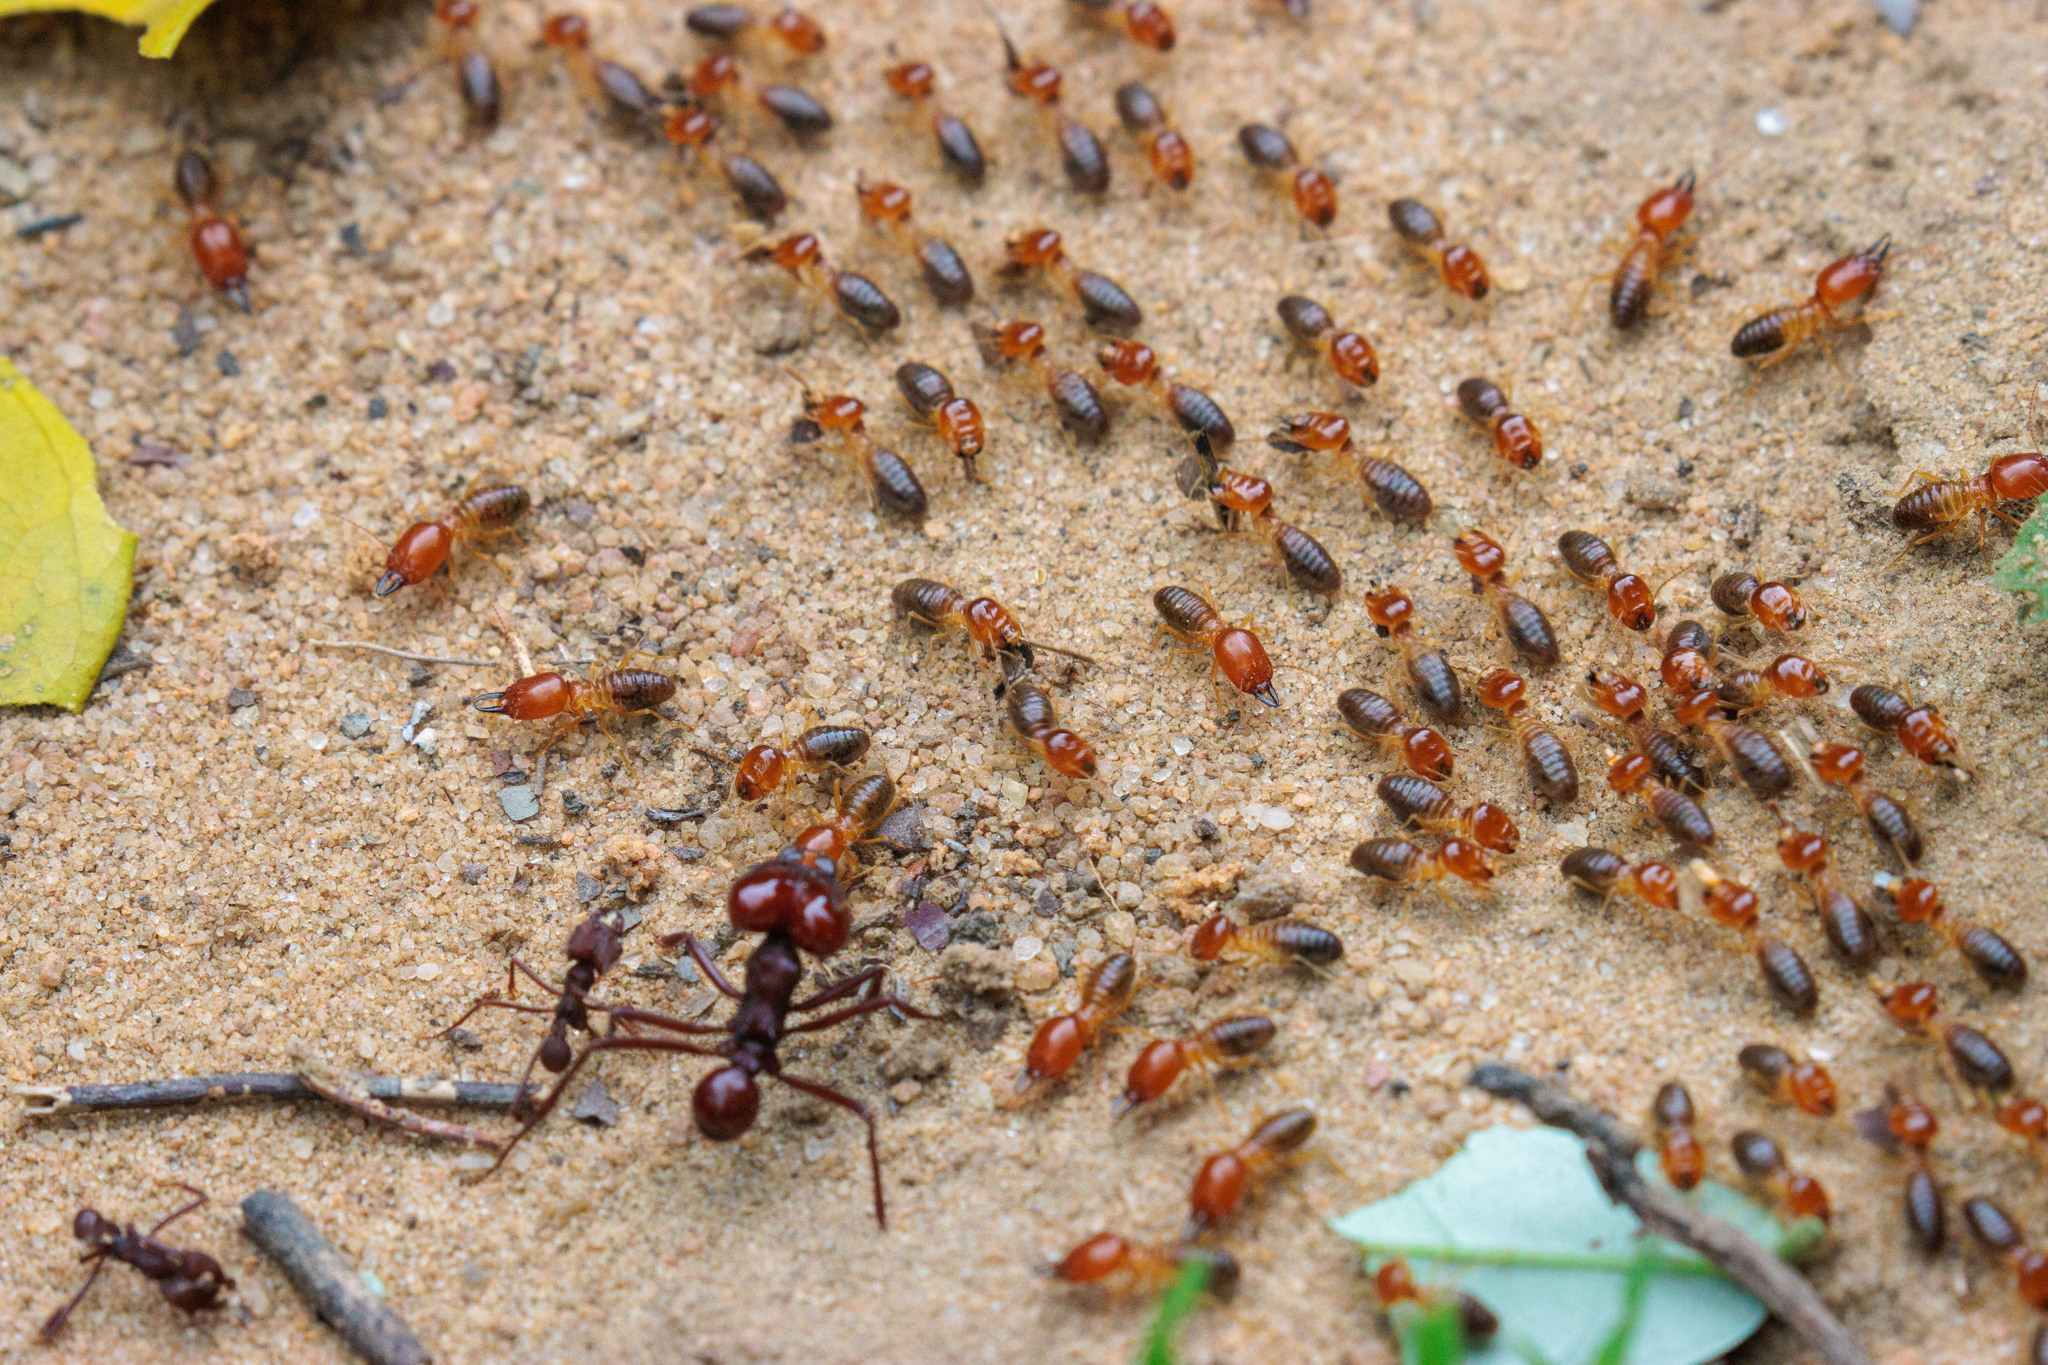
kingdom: Animalia
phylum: Arthropoda
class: Insecta
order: Blattodea
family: Termitidae
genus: Syntermes
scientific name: Syntermes nanus
